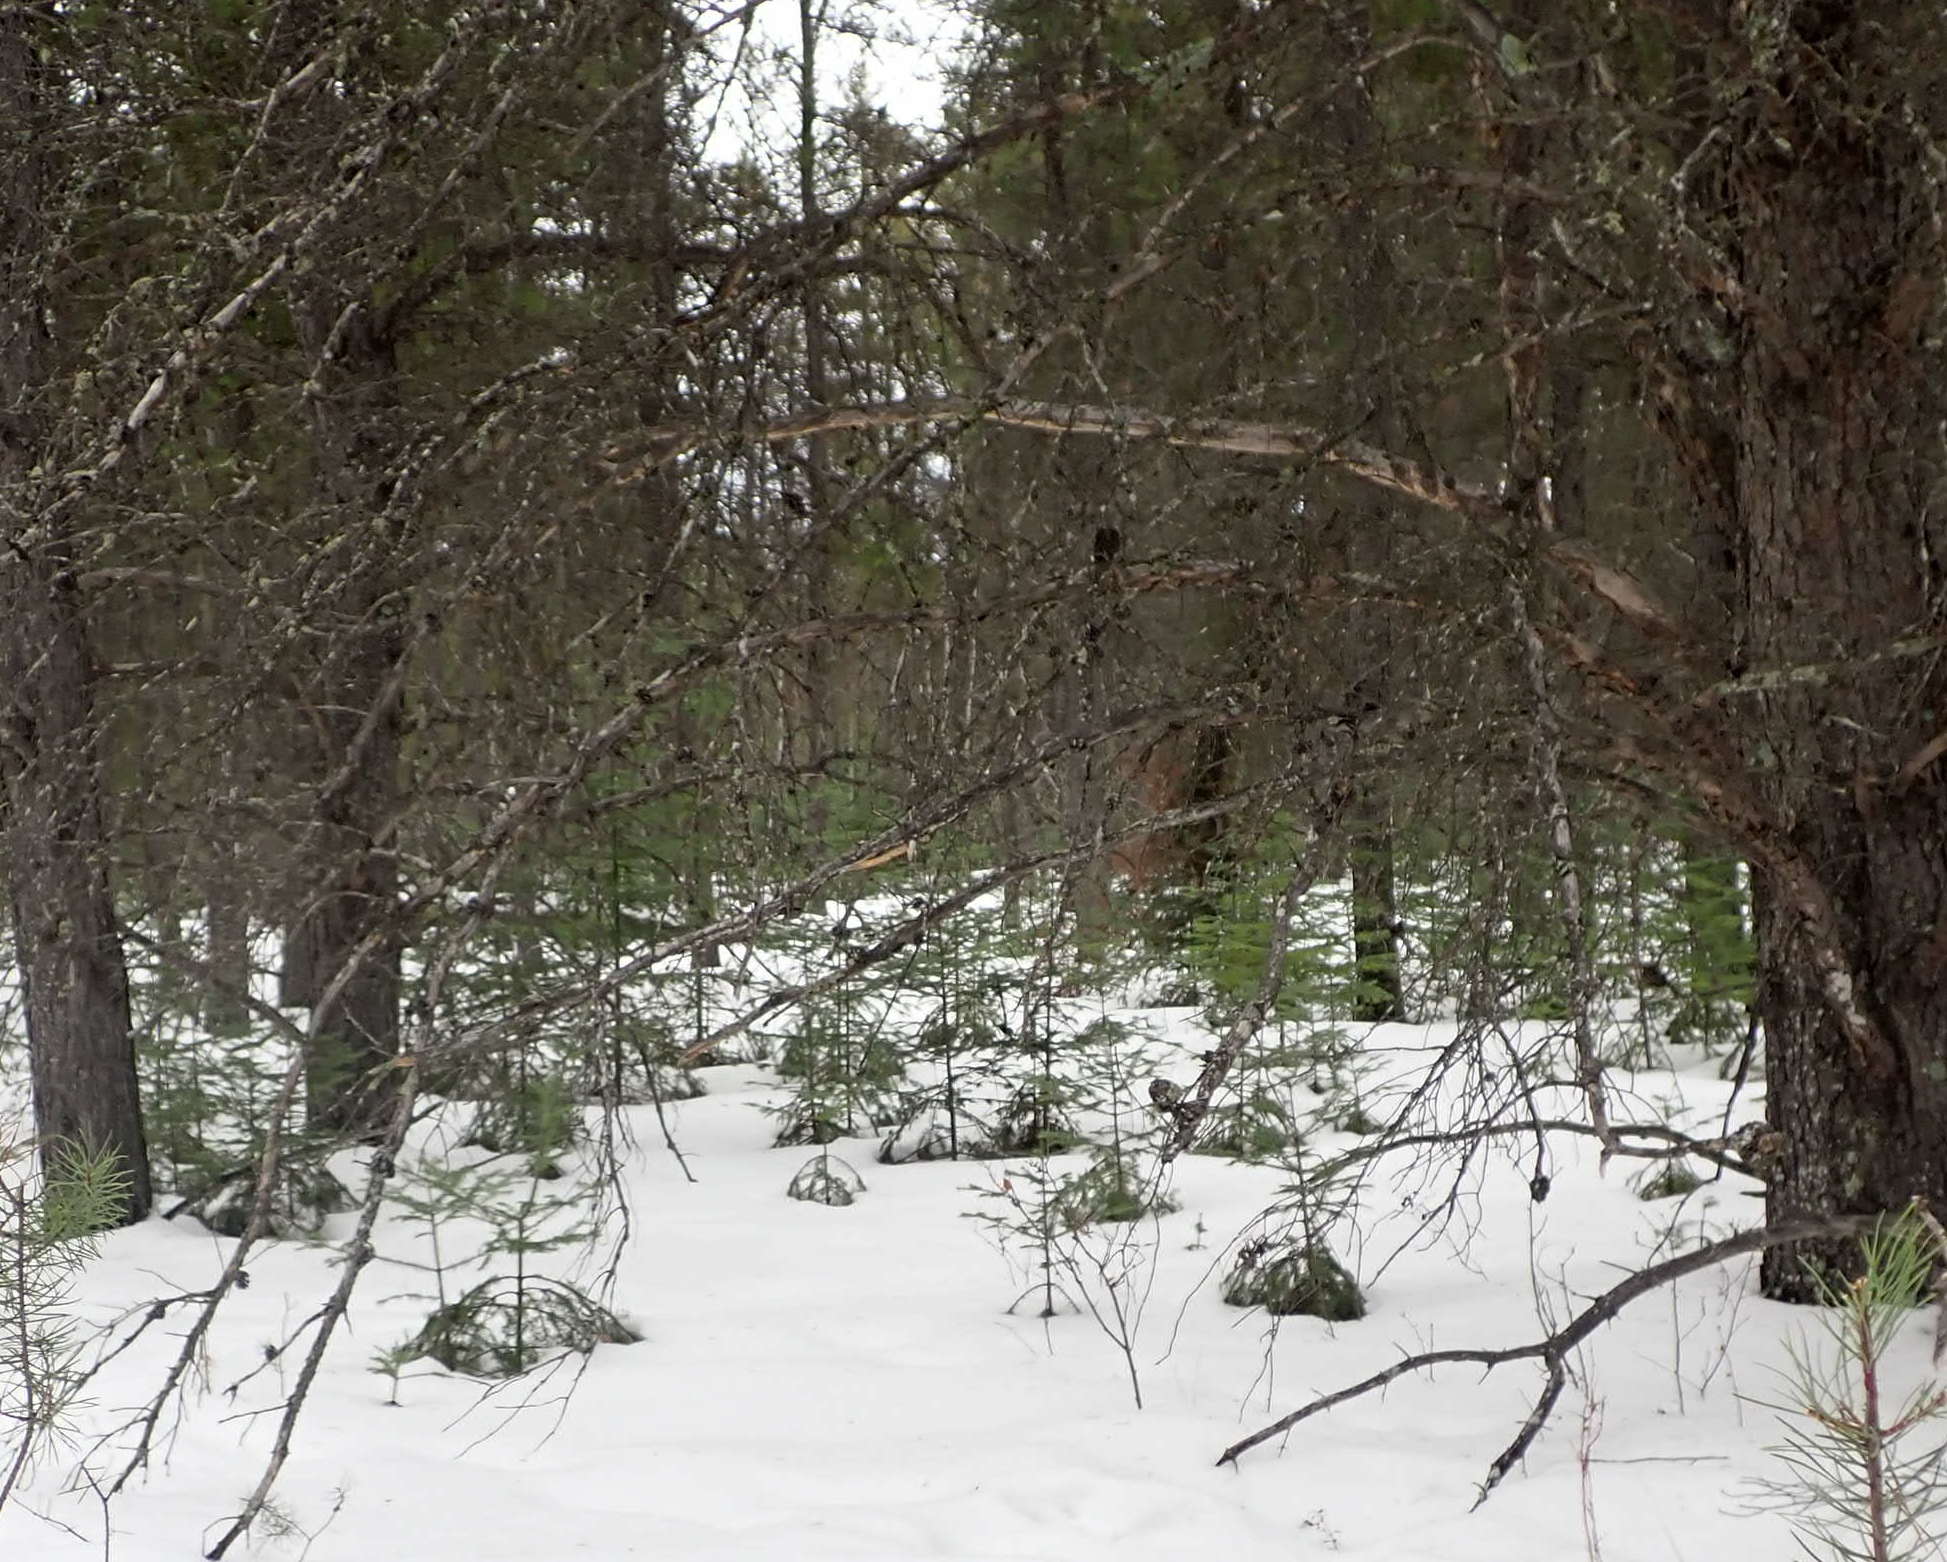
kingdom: Plantae
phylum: Tracheophyta
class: Pinopsida
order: Pinales
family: Pinaceae
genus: Abies
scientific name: Abies balsamea
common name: Balsam fir
